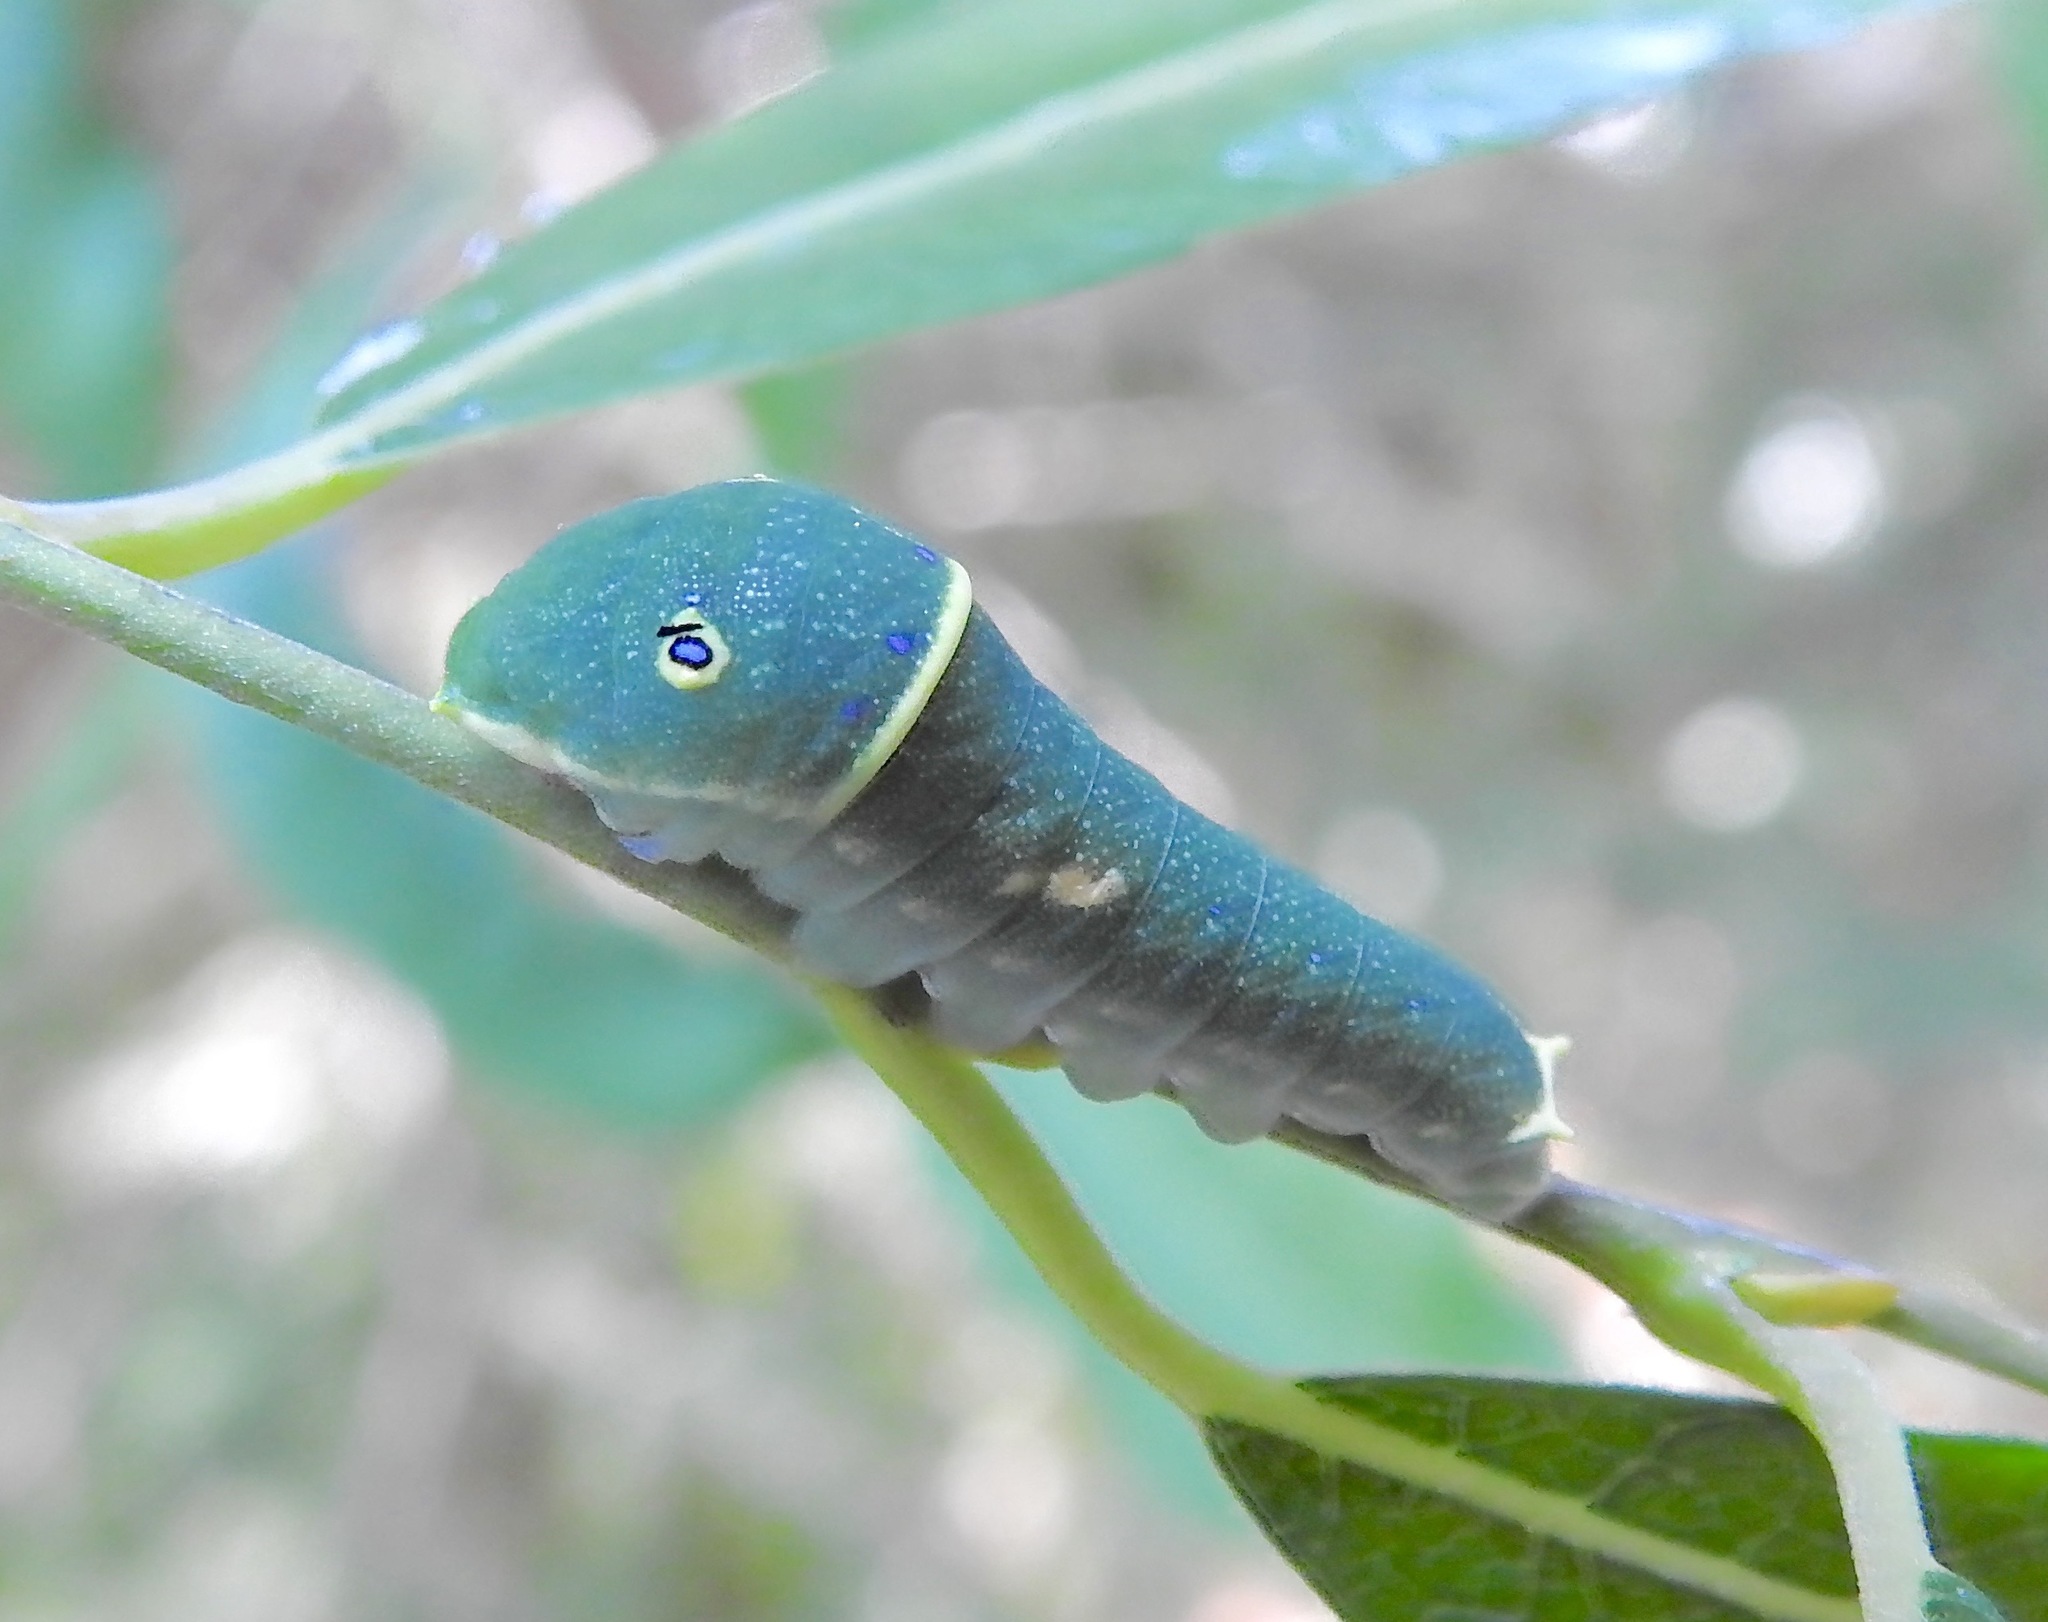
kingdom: Animalia
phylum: Arthropoda
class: Insecta
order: Lepidoptera
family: Papilionidae
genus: Papilio
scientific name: Papilio canadensis
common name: Canadian tiger swallowtail
